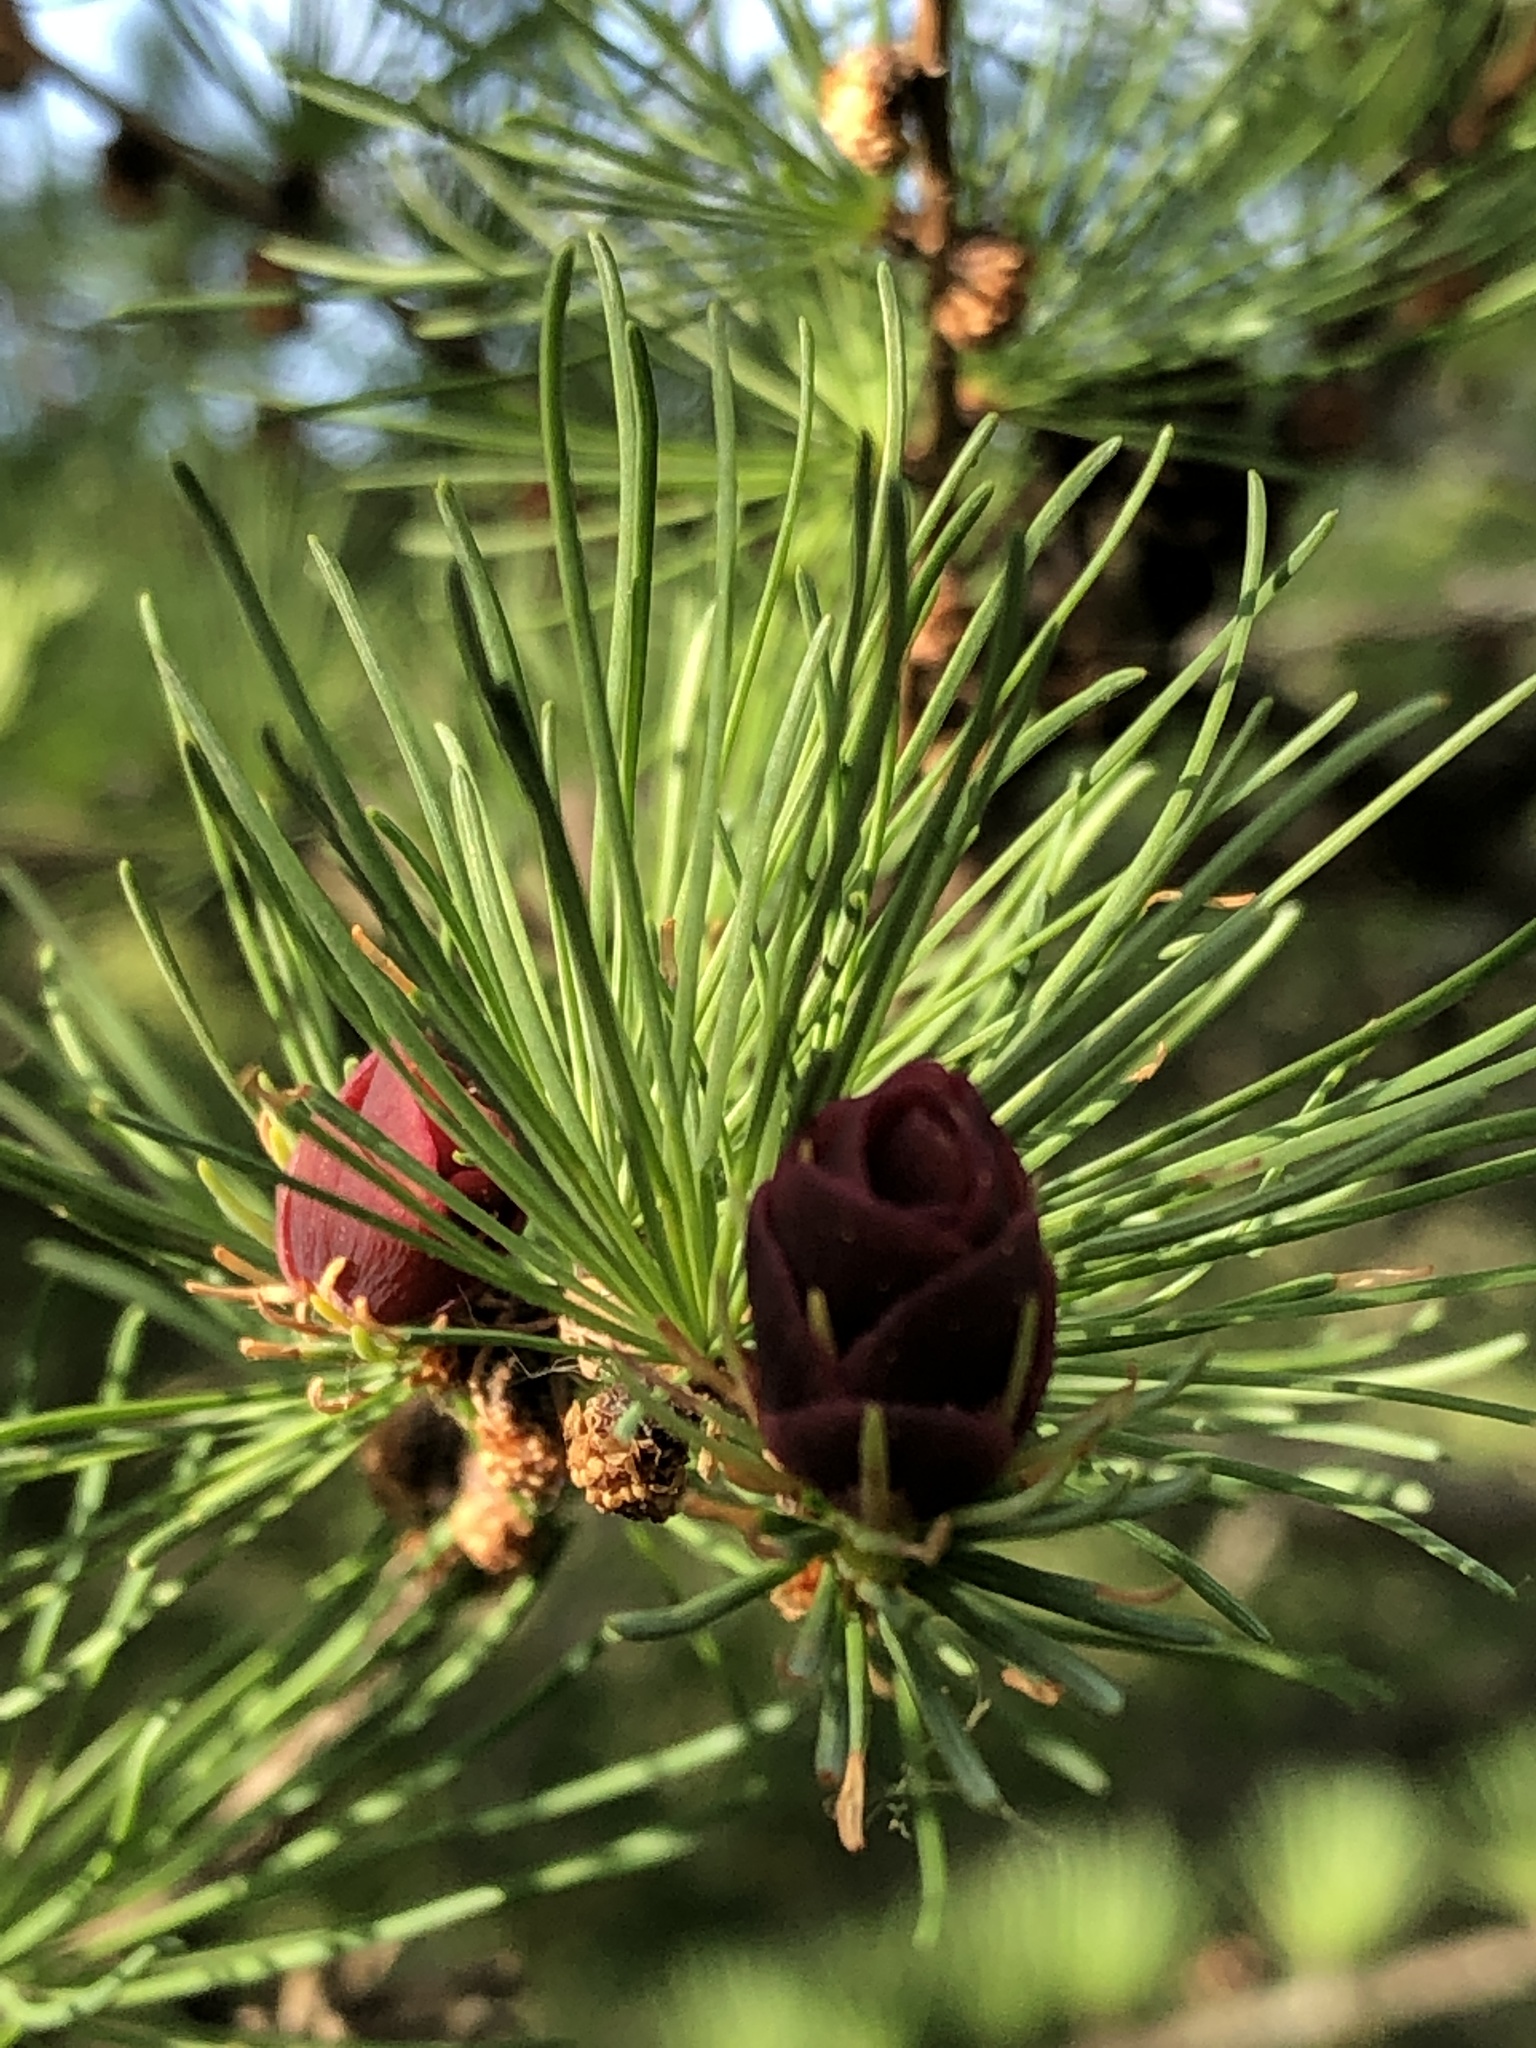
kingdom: Plantae
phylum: Tracheophyta
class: Pinopsida
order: Pinales
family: Pinaceae
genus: Larix
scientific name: Larix laricina
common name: American larch
